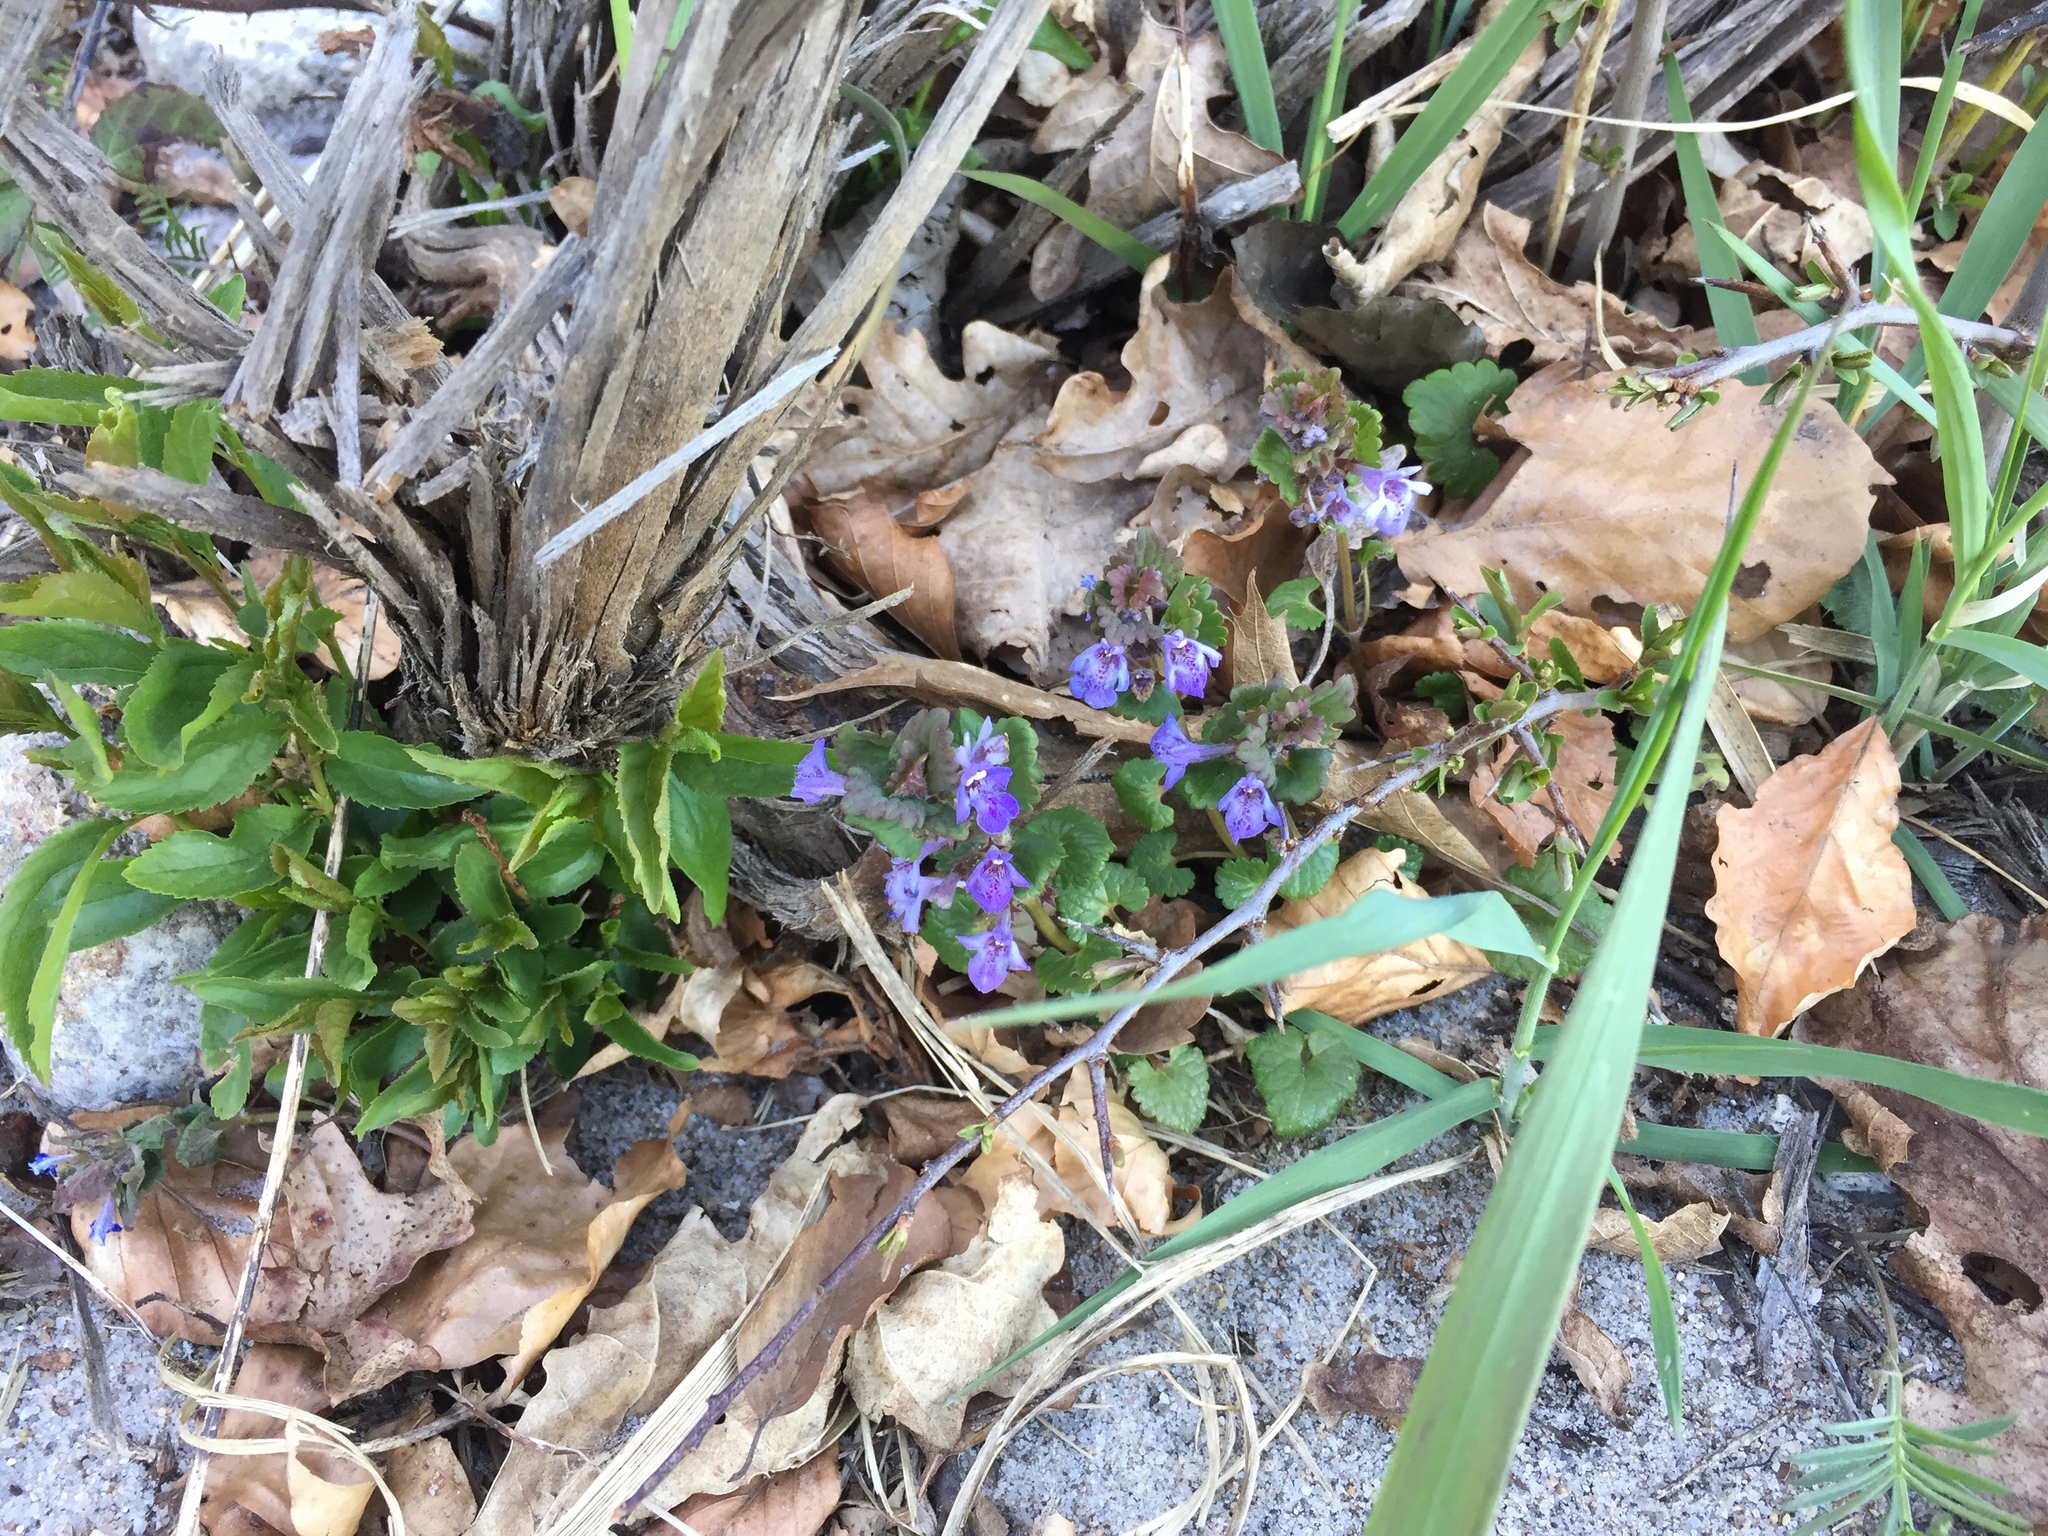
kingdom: Plantae
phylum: Tracheophyta
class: Magnoliopsida
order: Lamiales
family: Lamiaceae
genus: Glechoma
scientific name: Glechoma hederacea
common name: Ground ivy
